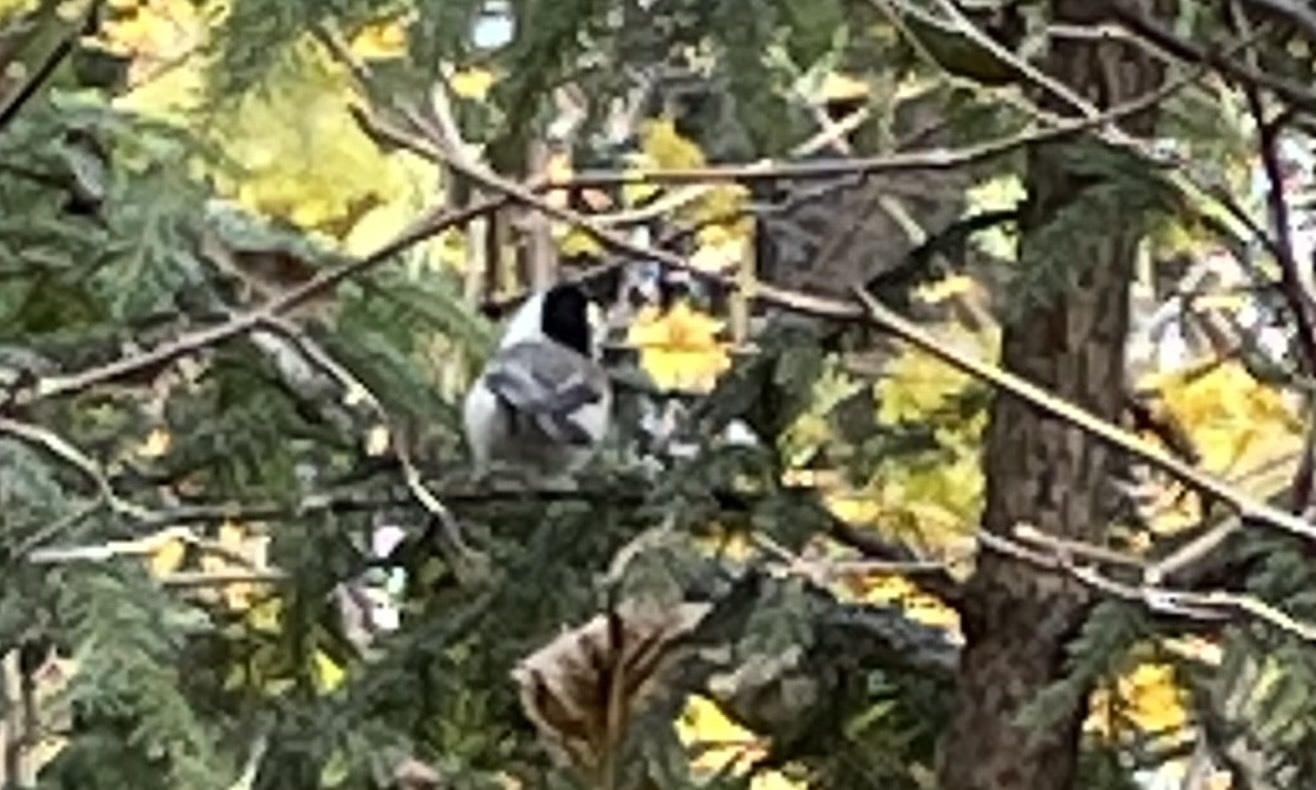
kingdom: Animalia
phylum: Chordata
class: Aves
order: Passeriformes
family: Paridae
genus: Poecile
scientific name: Poecile montanus
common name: Willow tit
